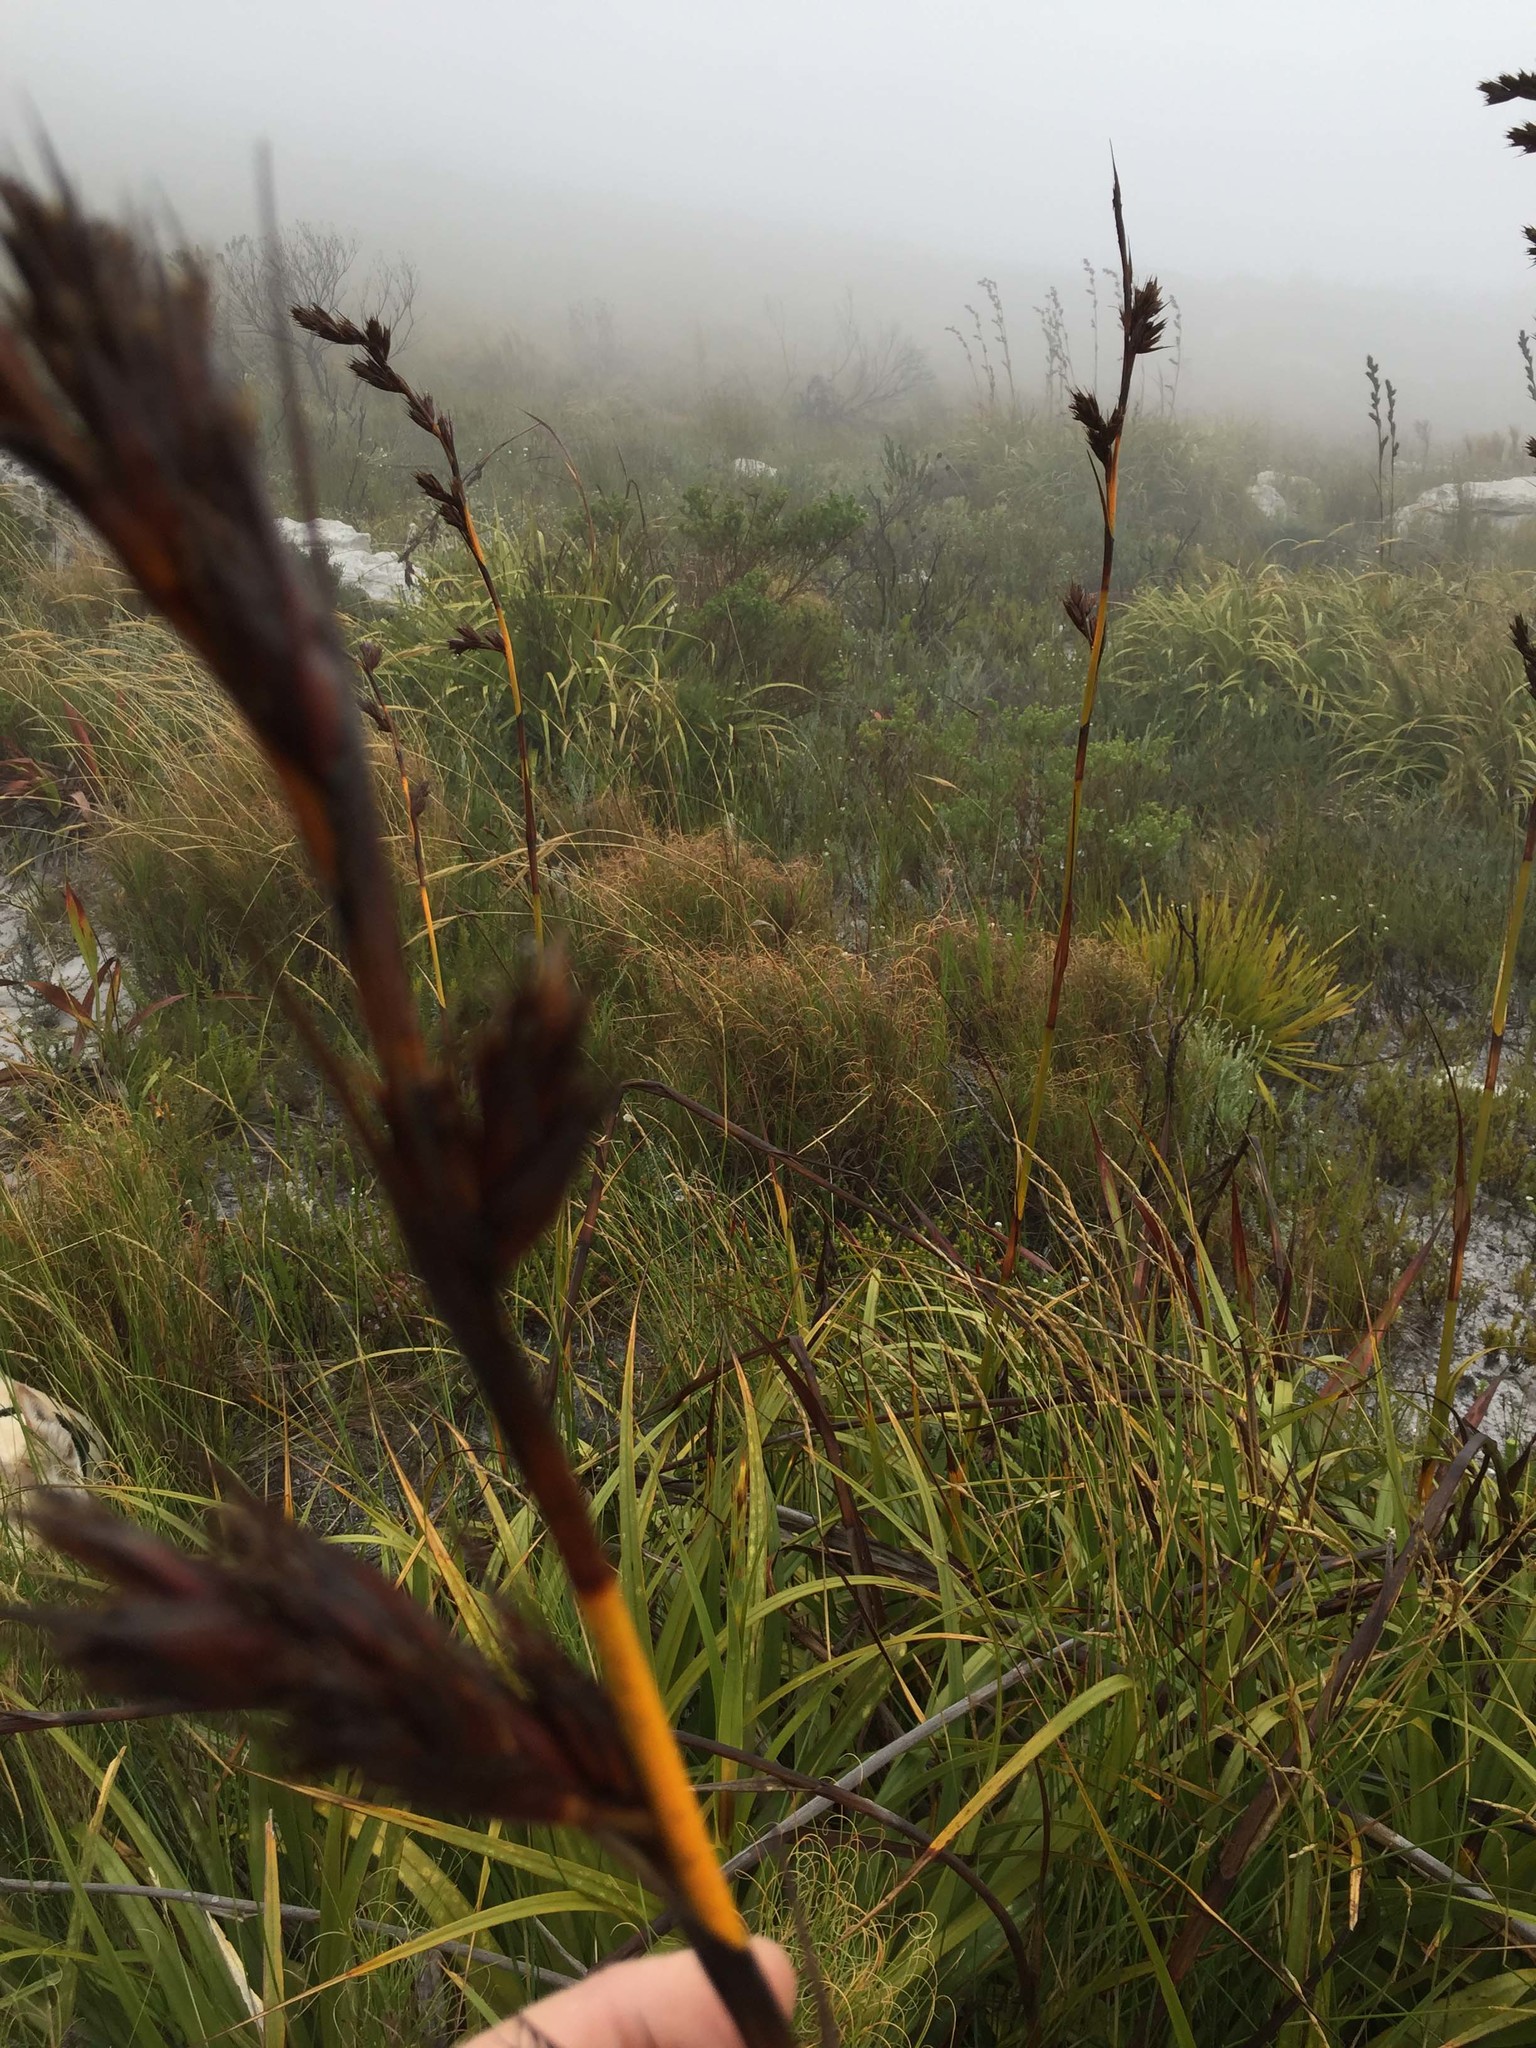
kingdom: Plantae
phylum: Tracheophyta
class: Liliopsida
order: Poales
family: Cyperaceae
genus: Tetraria
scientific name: Tetraria thermalis
